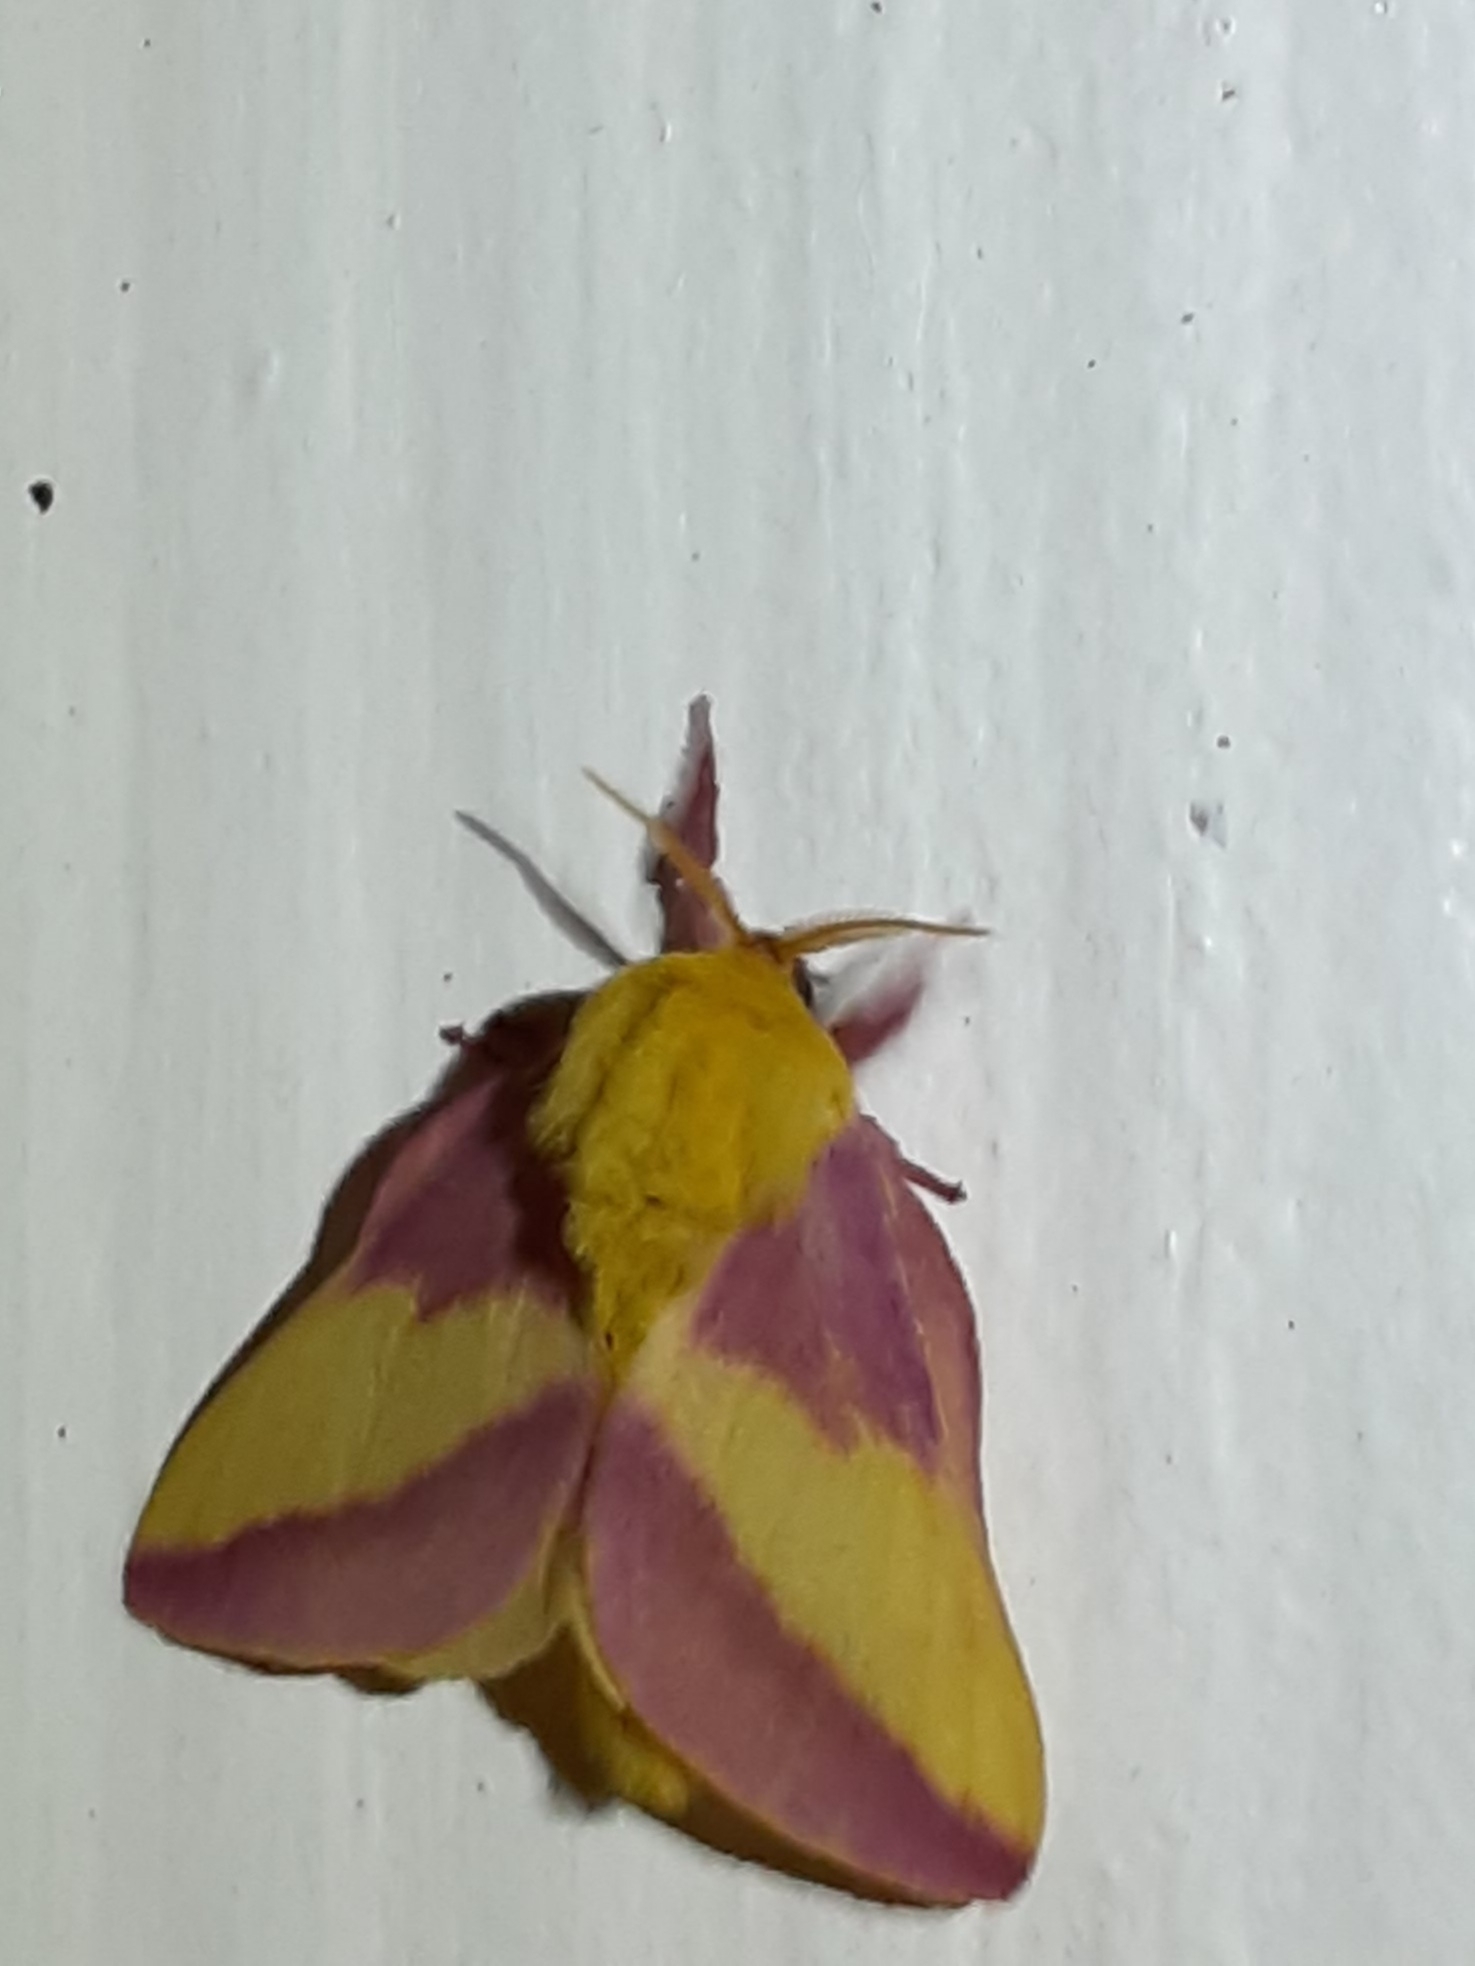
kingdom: Animalia
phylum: Arthropoda
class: Insecta
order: Lepidoptera
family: Saturniidae
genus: Dryocampa
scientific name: Dryocampa rubicunda
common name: Rosy maple moth
